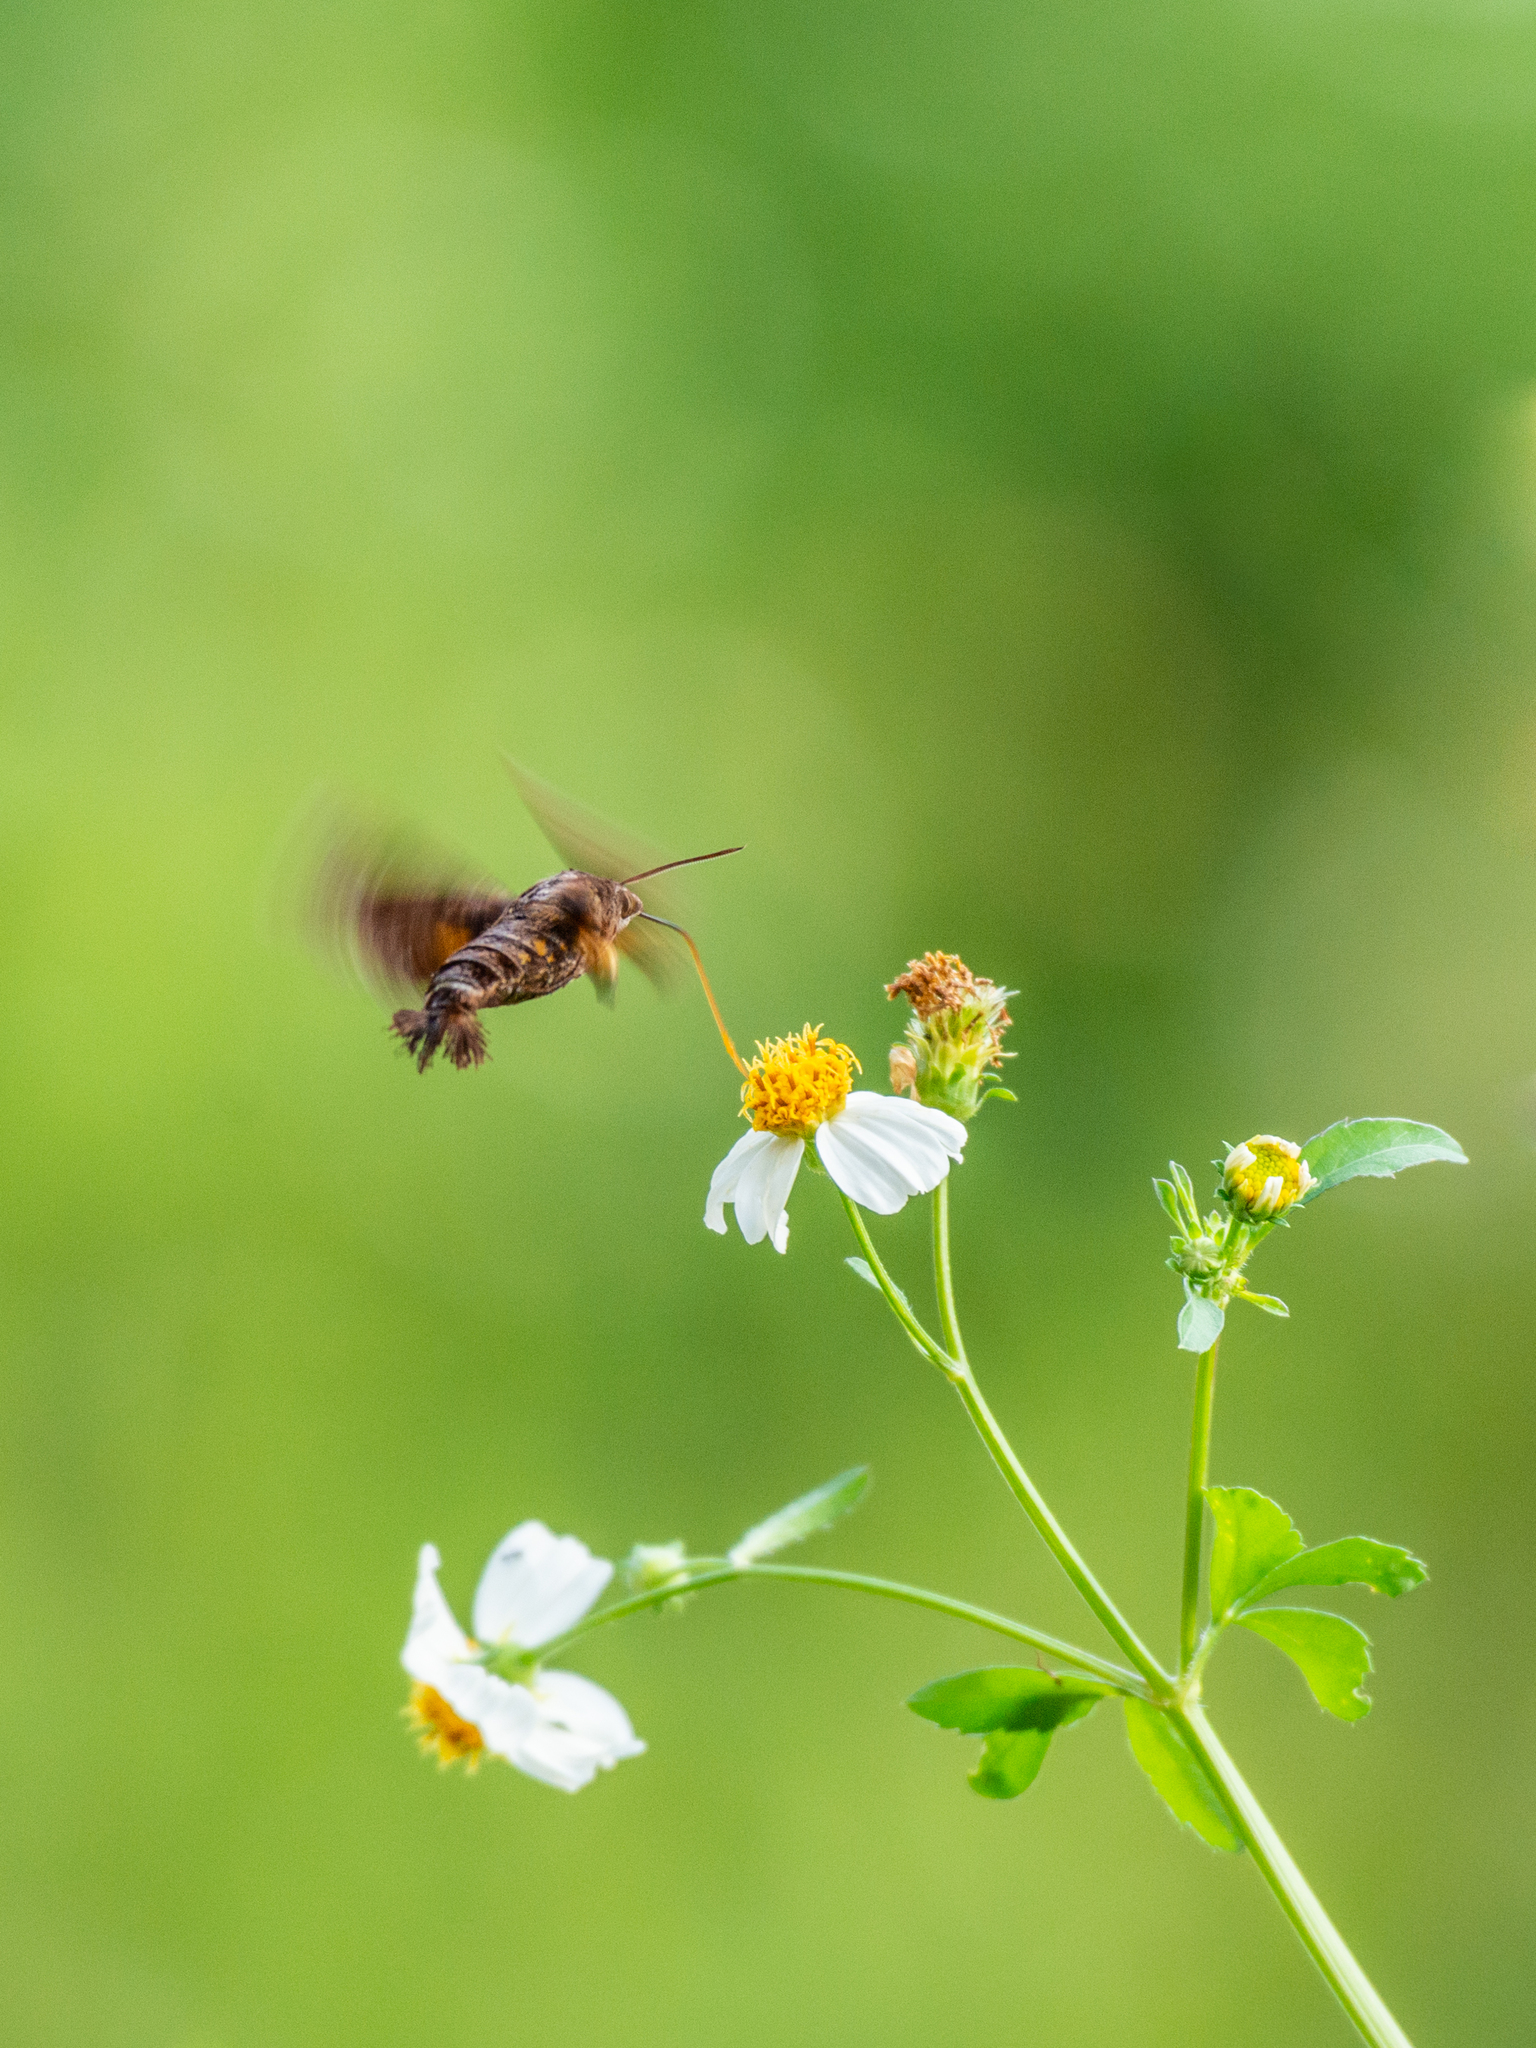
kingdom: Animalia
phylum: Arthropoda
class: Insecta
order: Lepidoptera
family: Sphingidae
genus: Macroglossum
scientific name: Macroglossum divergens
